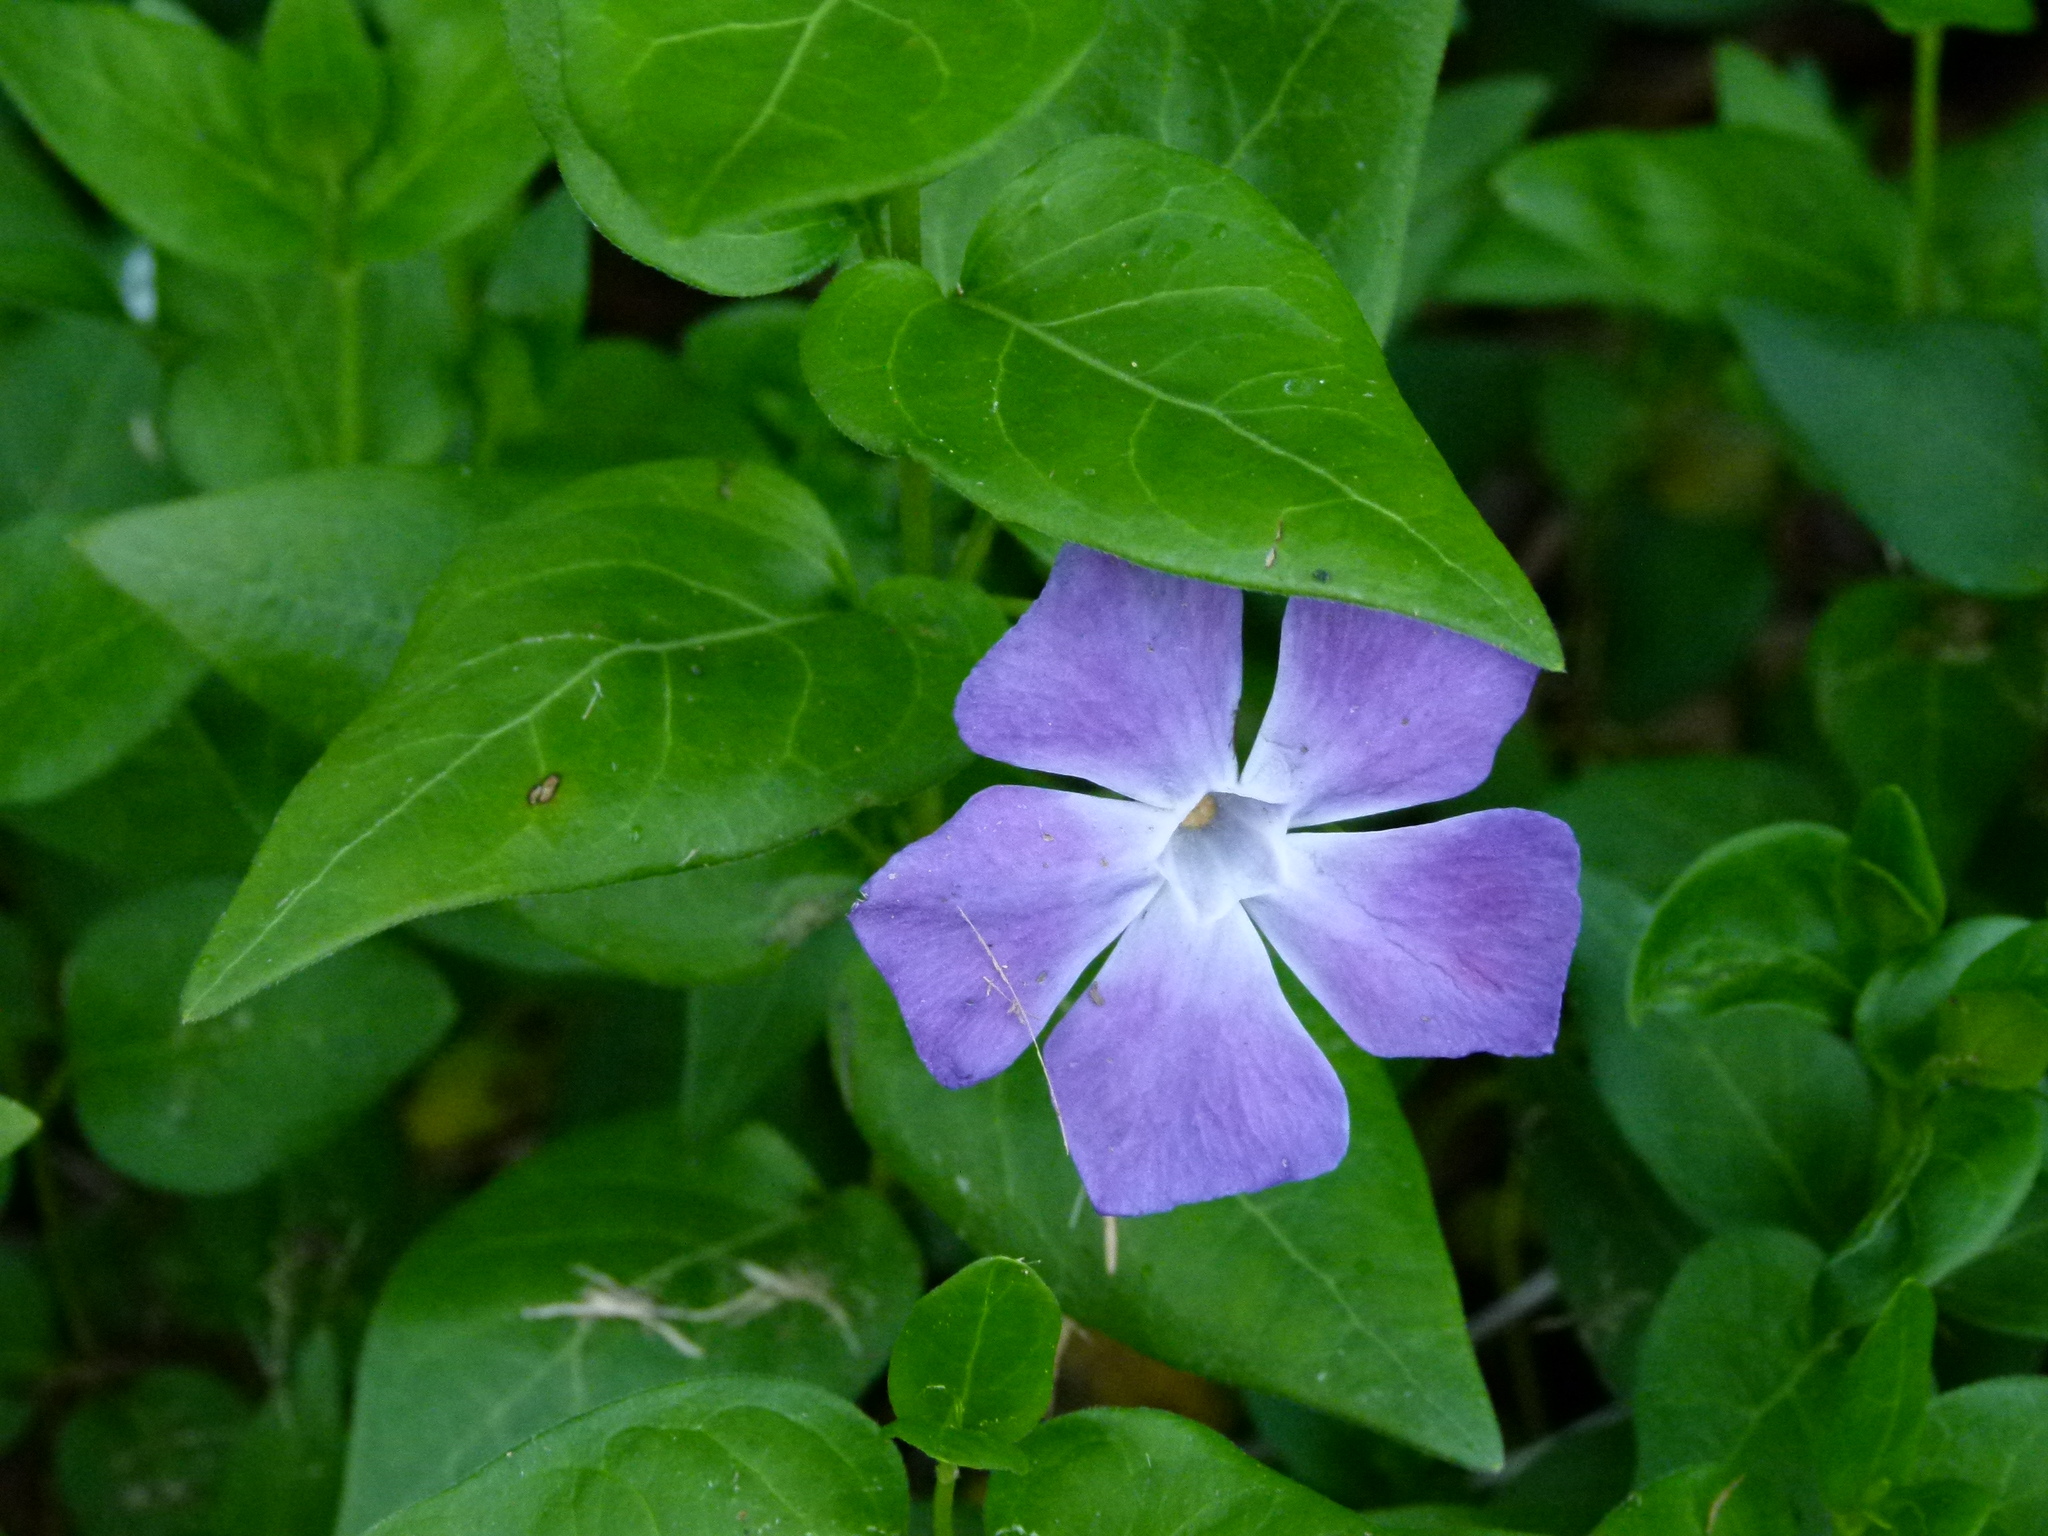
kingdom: Plantae
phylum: Tracheophyta
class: Magnoliopsida
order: Gentianales
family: Apocynaceae
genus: Vinca
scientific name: Vinca major
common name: Greater periwinkle
